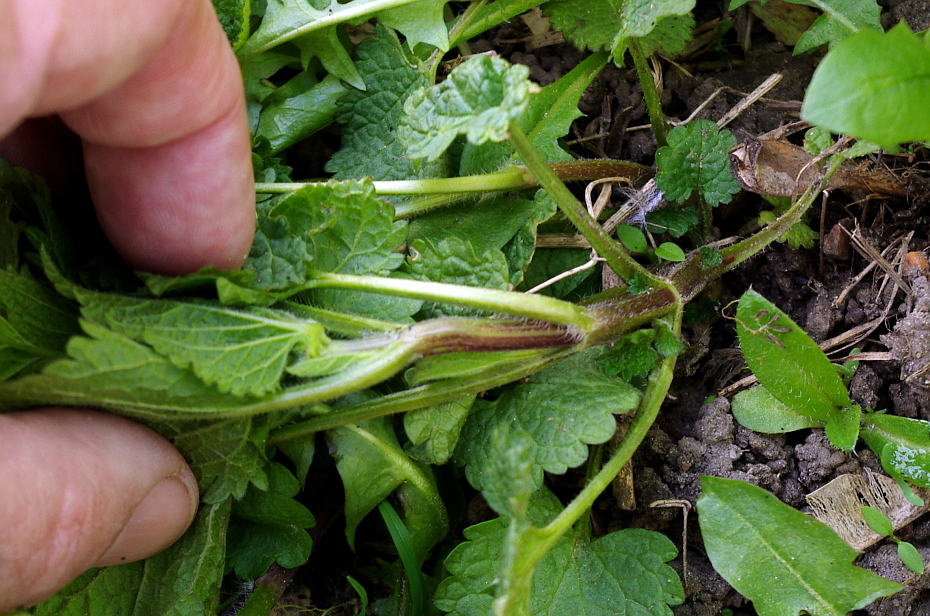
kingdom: Plantae
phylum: Tracheophyta
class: Magnoliopsida
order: Lamiales
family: Lamiaceae
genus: Lamium
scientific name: Lamium album
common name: White dead-nettle
